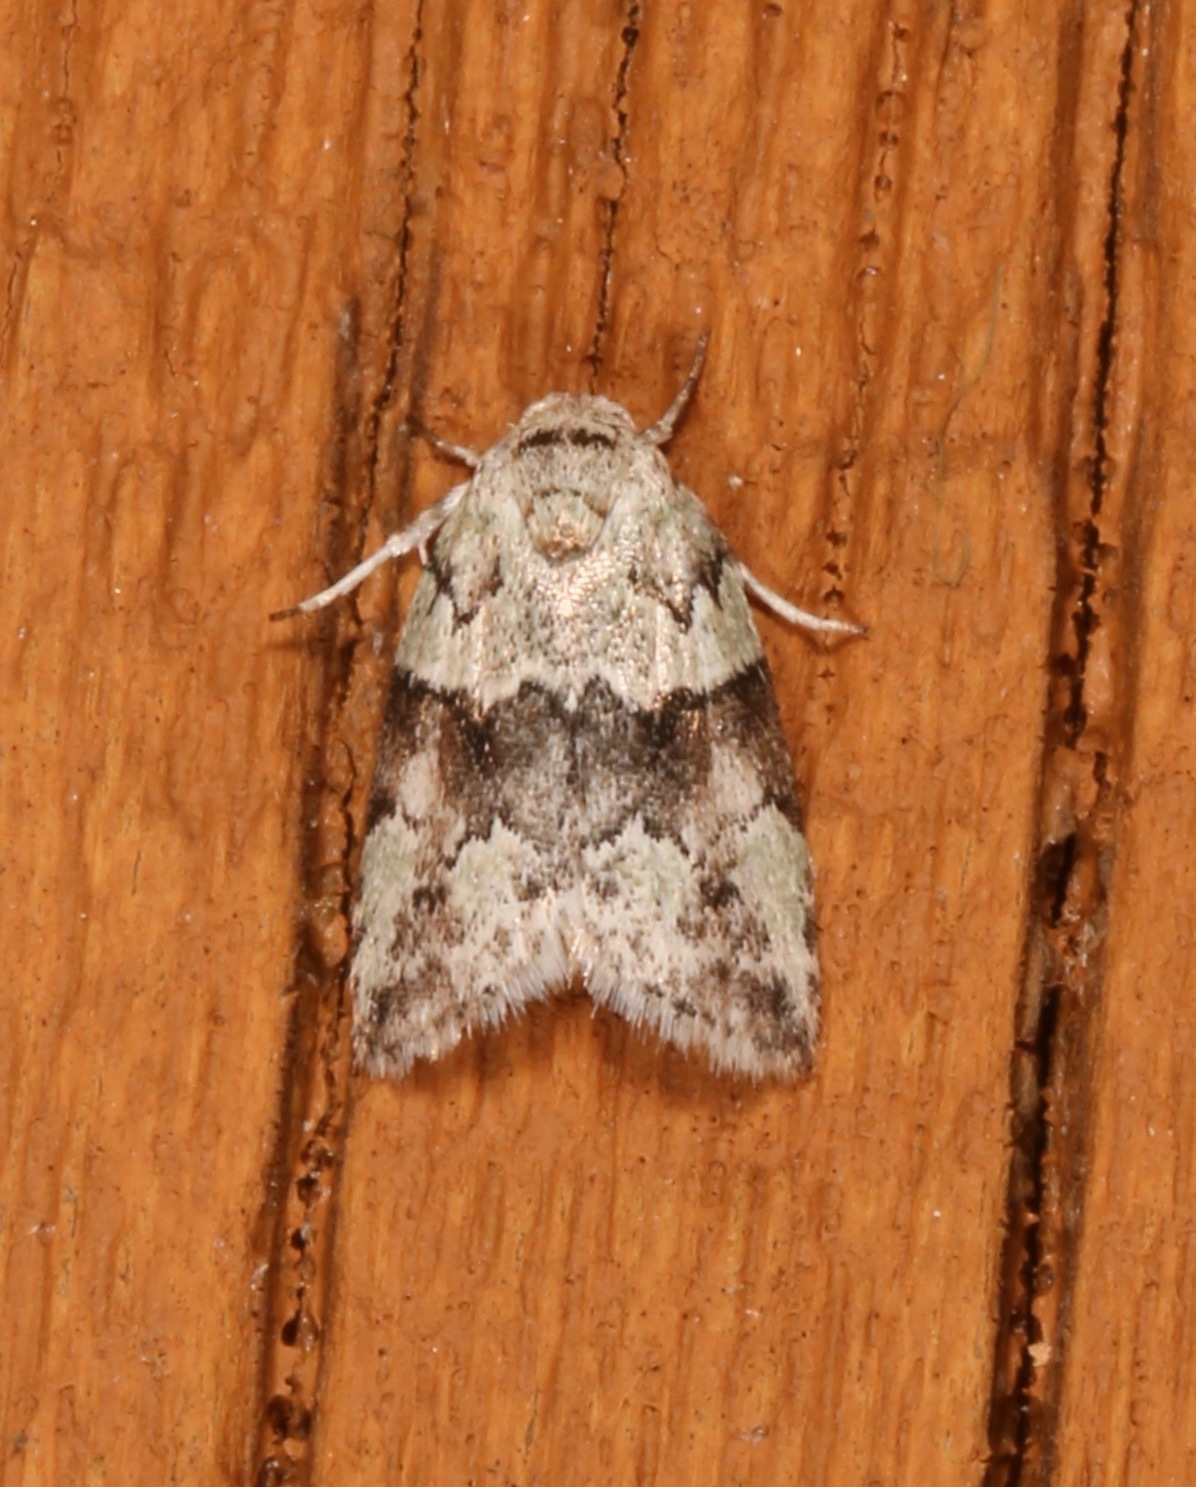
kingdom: Animalia
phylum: Arthropoda
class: Insecta
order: Lepidoptera
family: Nolidae
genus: Afrida
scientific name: Afrida ydatodes
